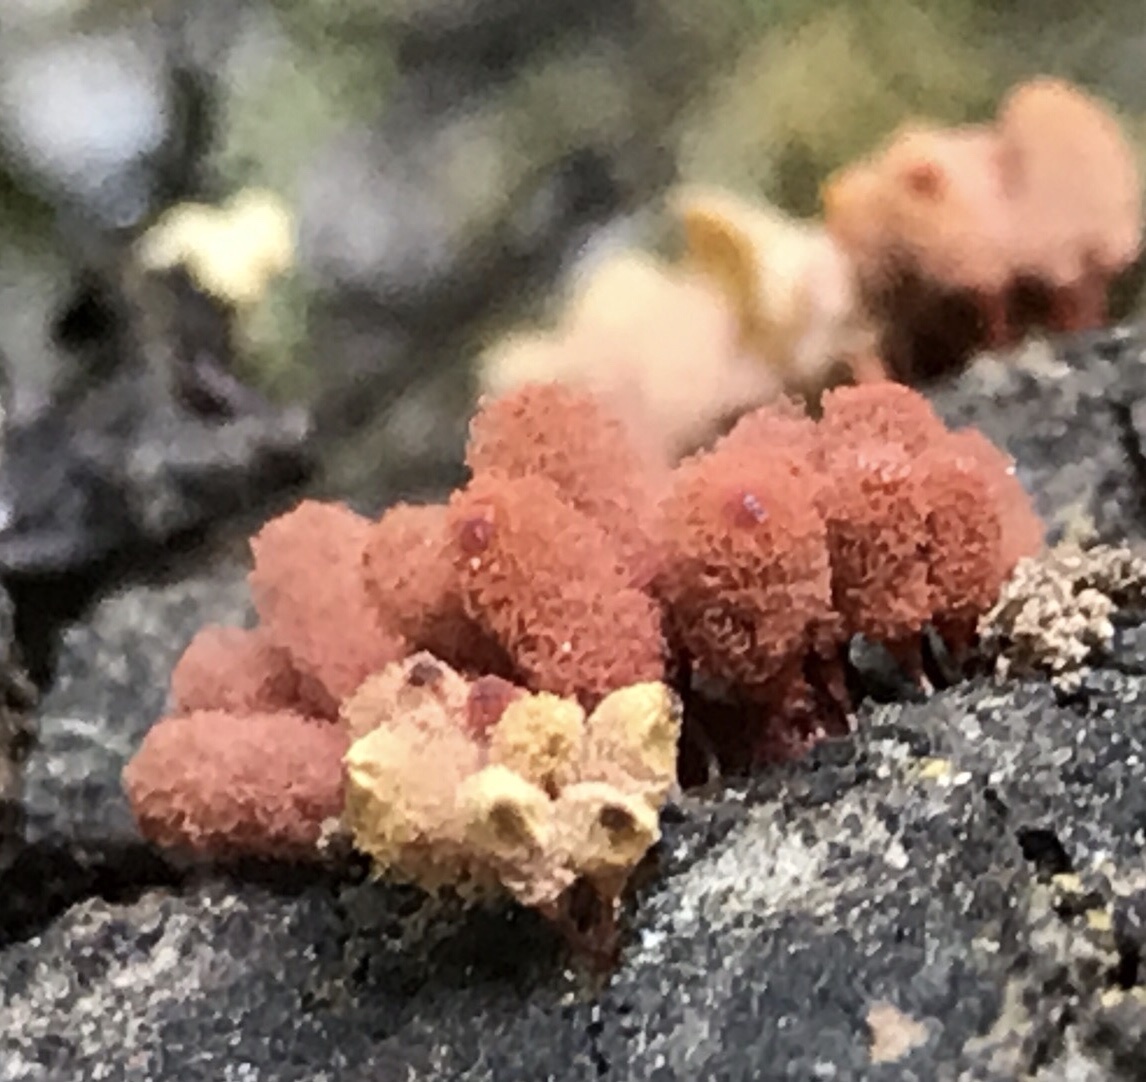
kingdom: Protozoa
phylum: Mycetozoa
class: Myxomycetes
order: Trichiales
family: Arcyriaceae
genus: Arcyria
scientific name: Arcyria denudata
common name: Carnival candy slime mold
